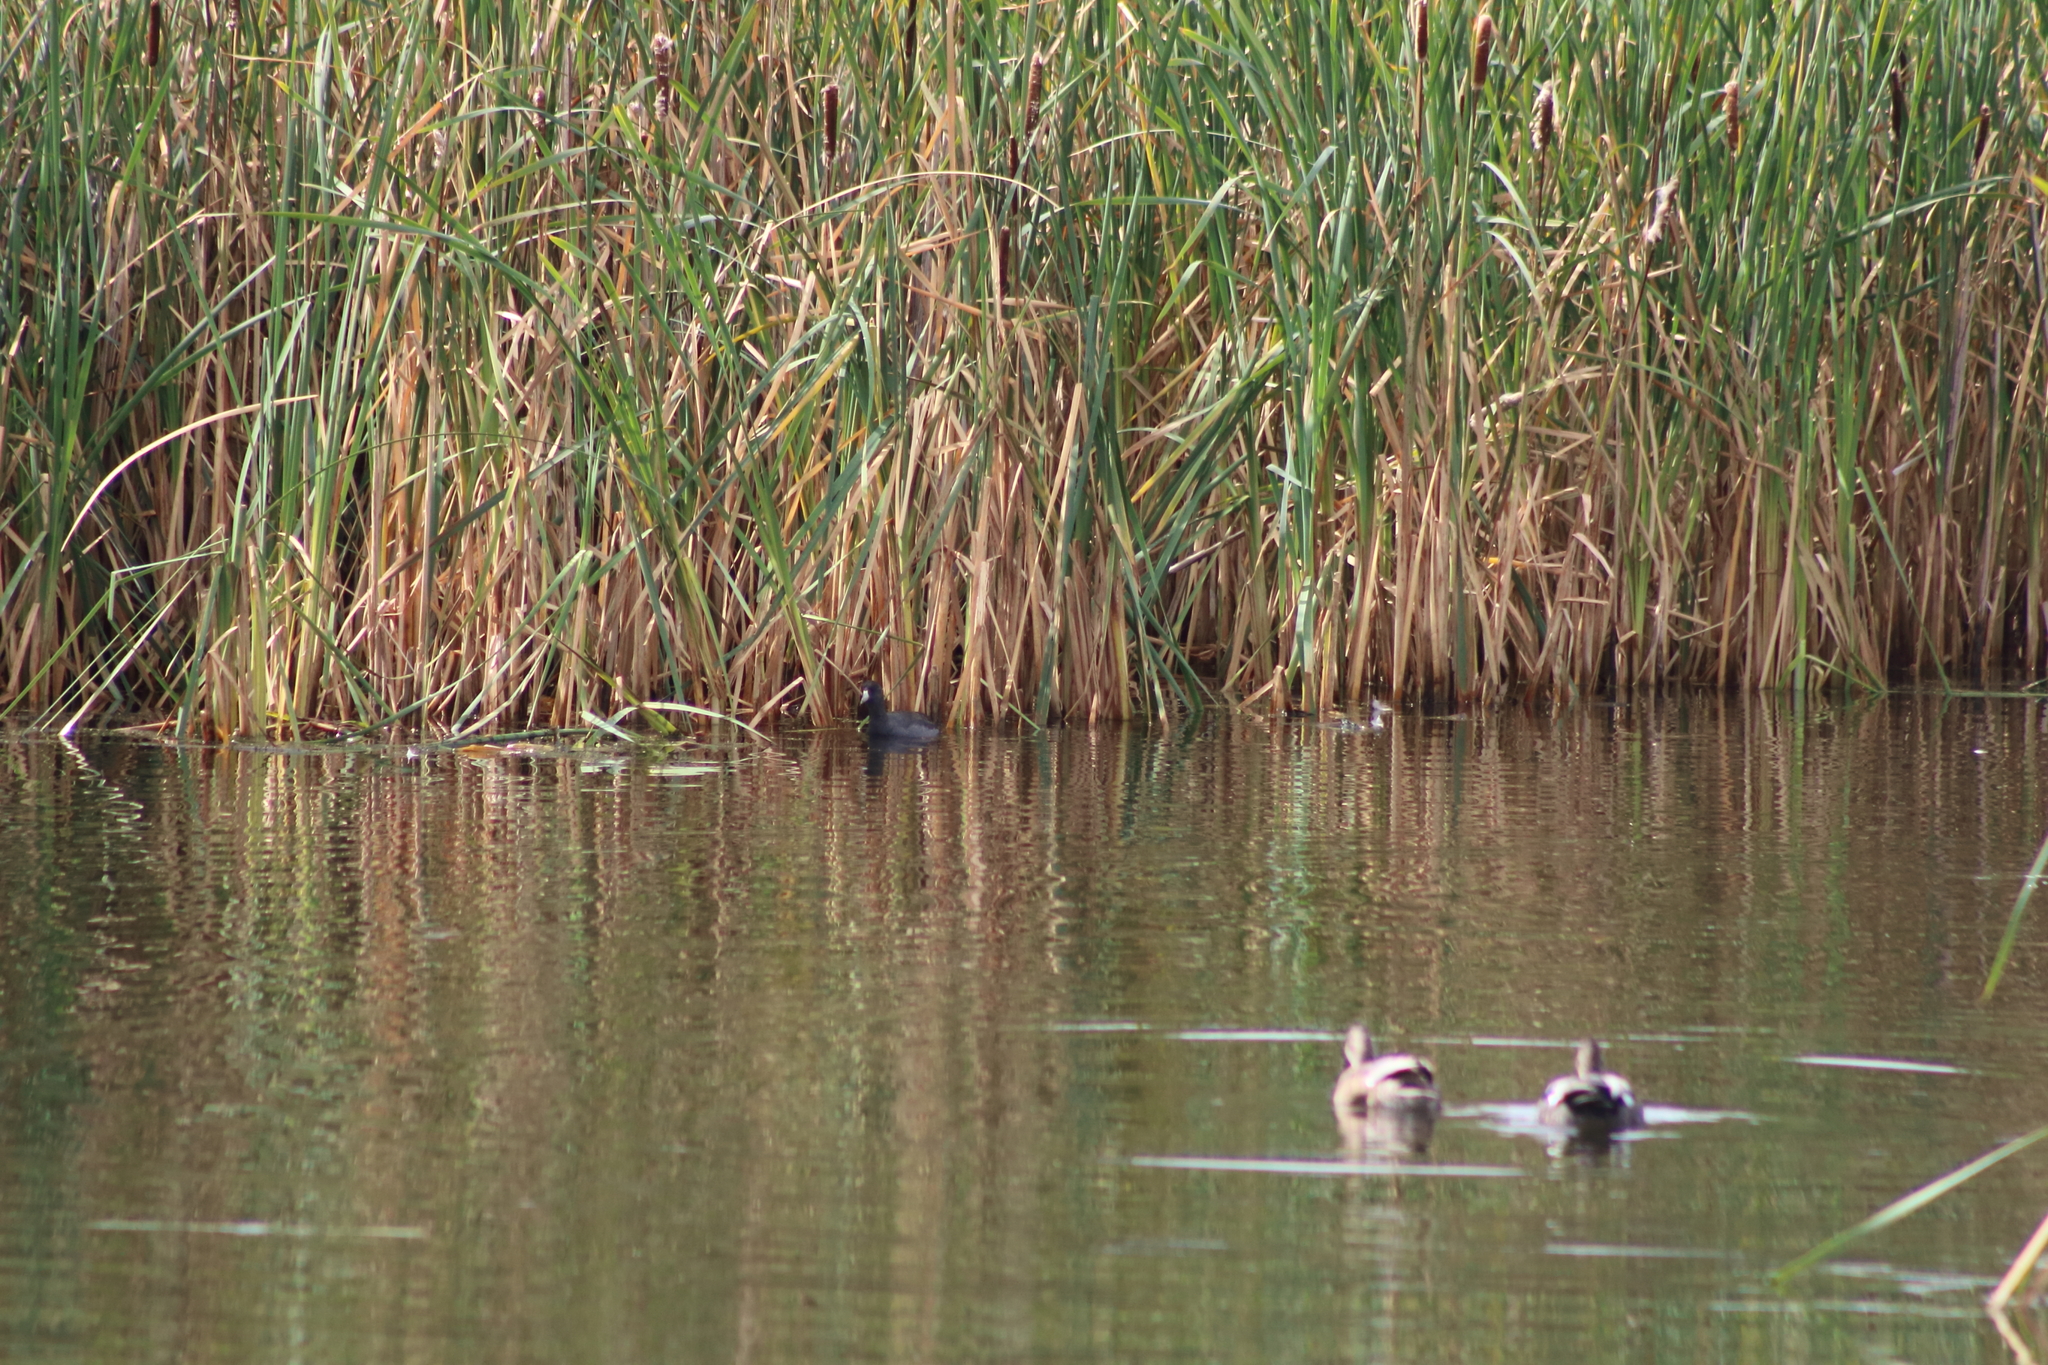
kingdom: Animalia
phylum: Chordata
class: Aves
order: Gruiformes
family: Rallidae
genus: Fulica
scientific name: Fulica americana
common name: American coot
